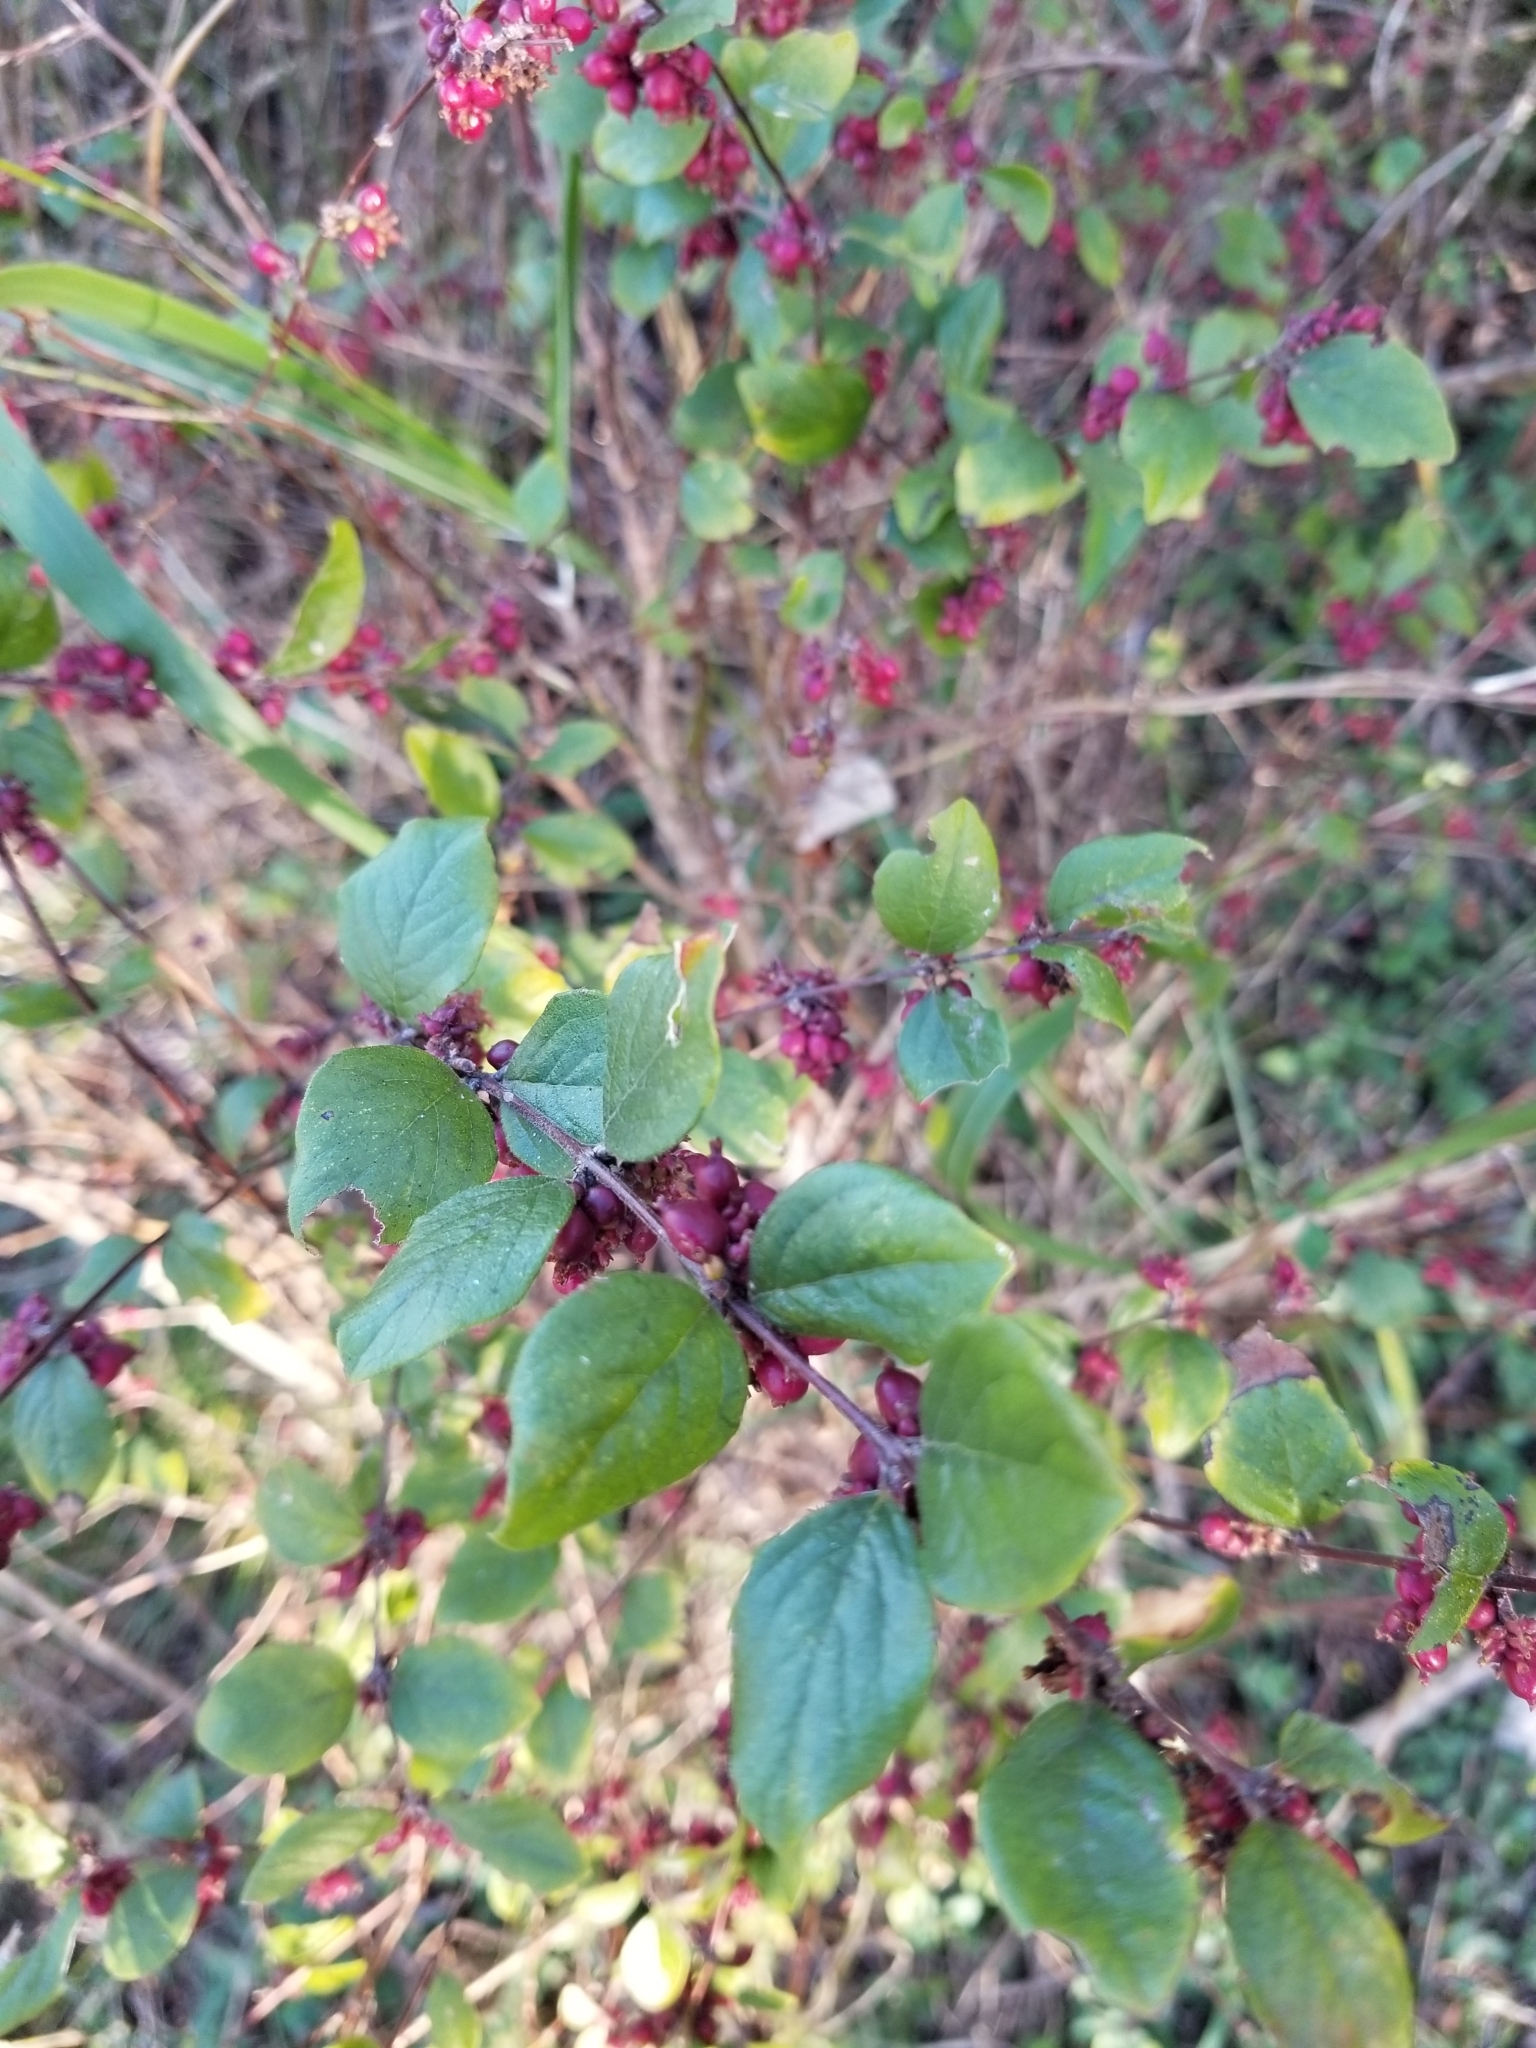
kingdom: Plantae
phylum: Tracheophyta
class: Magnoliopsida
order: Dipsacales
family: Caprifoliaceae
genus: Symphoricarpos
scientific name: Symphoricarpos orbiculatus
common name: Coralberry
